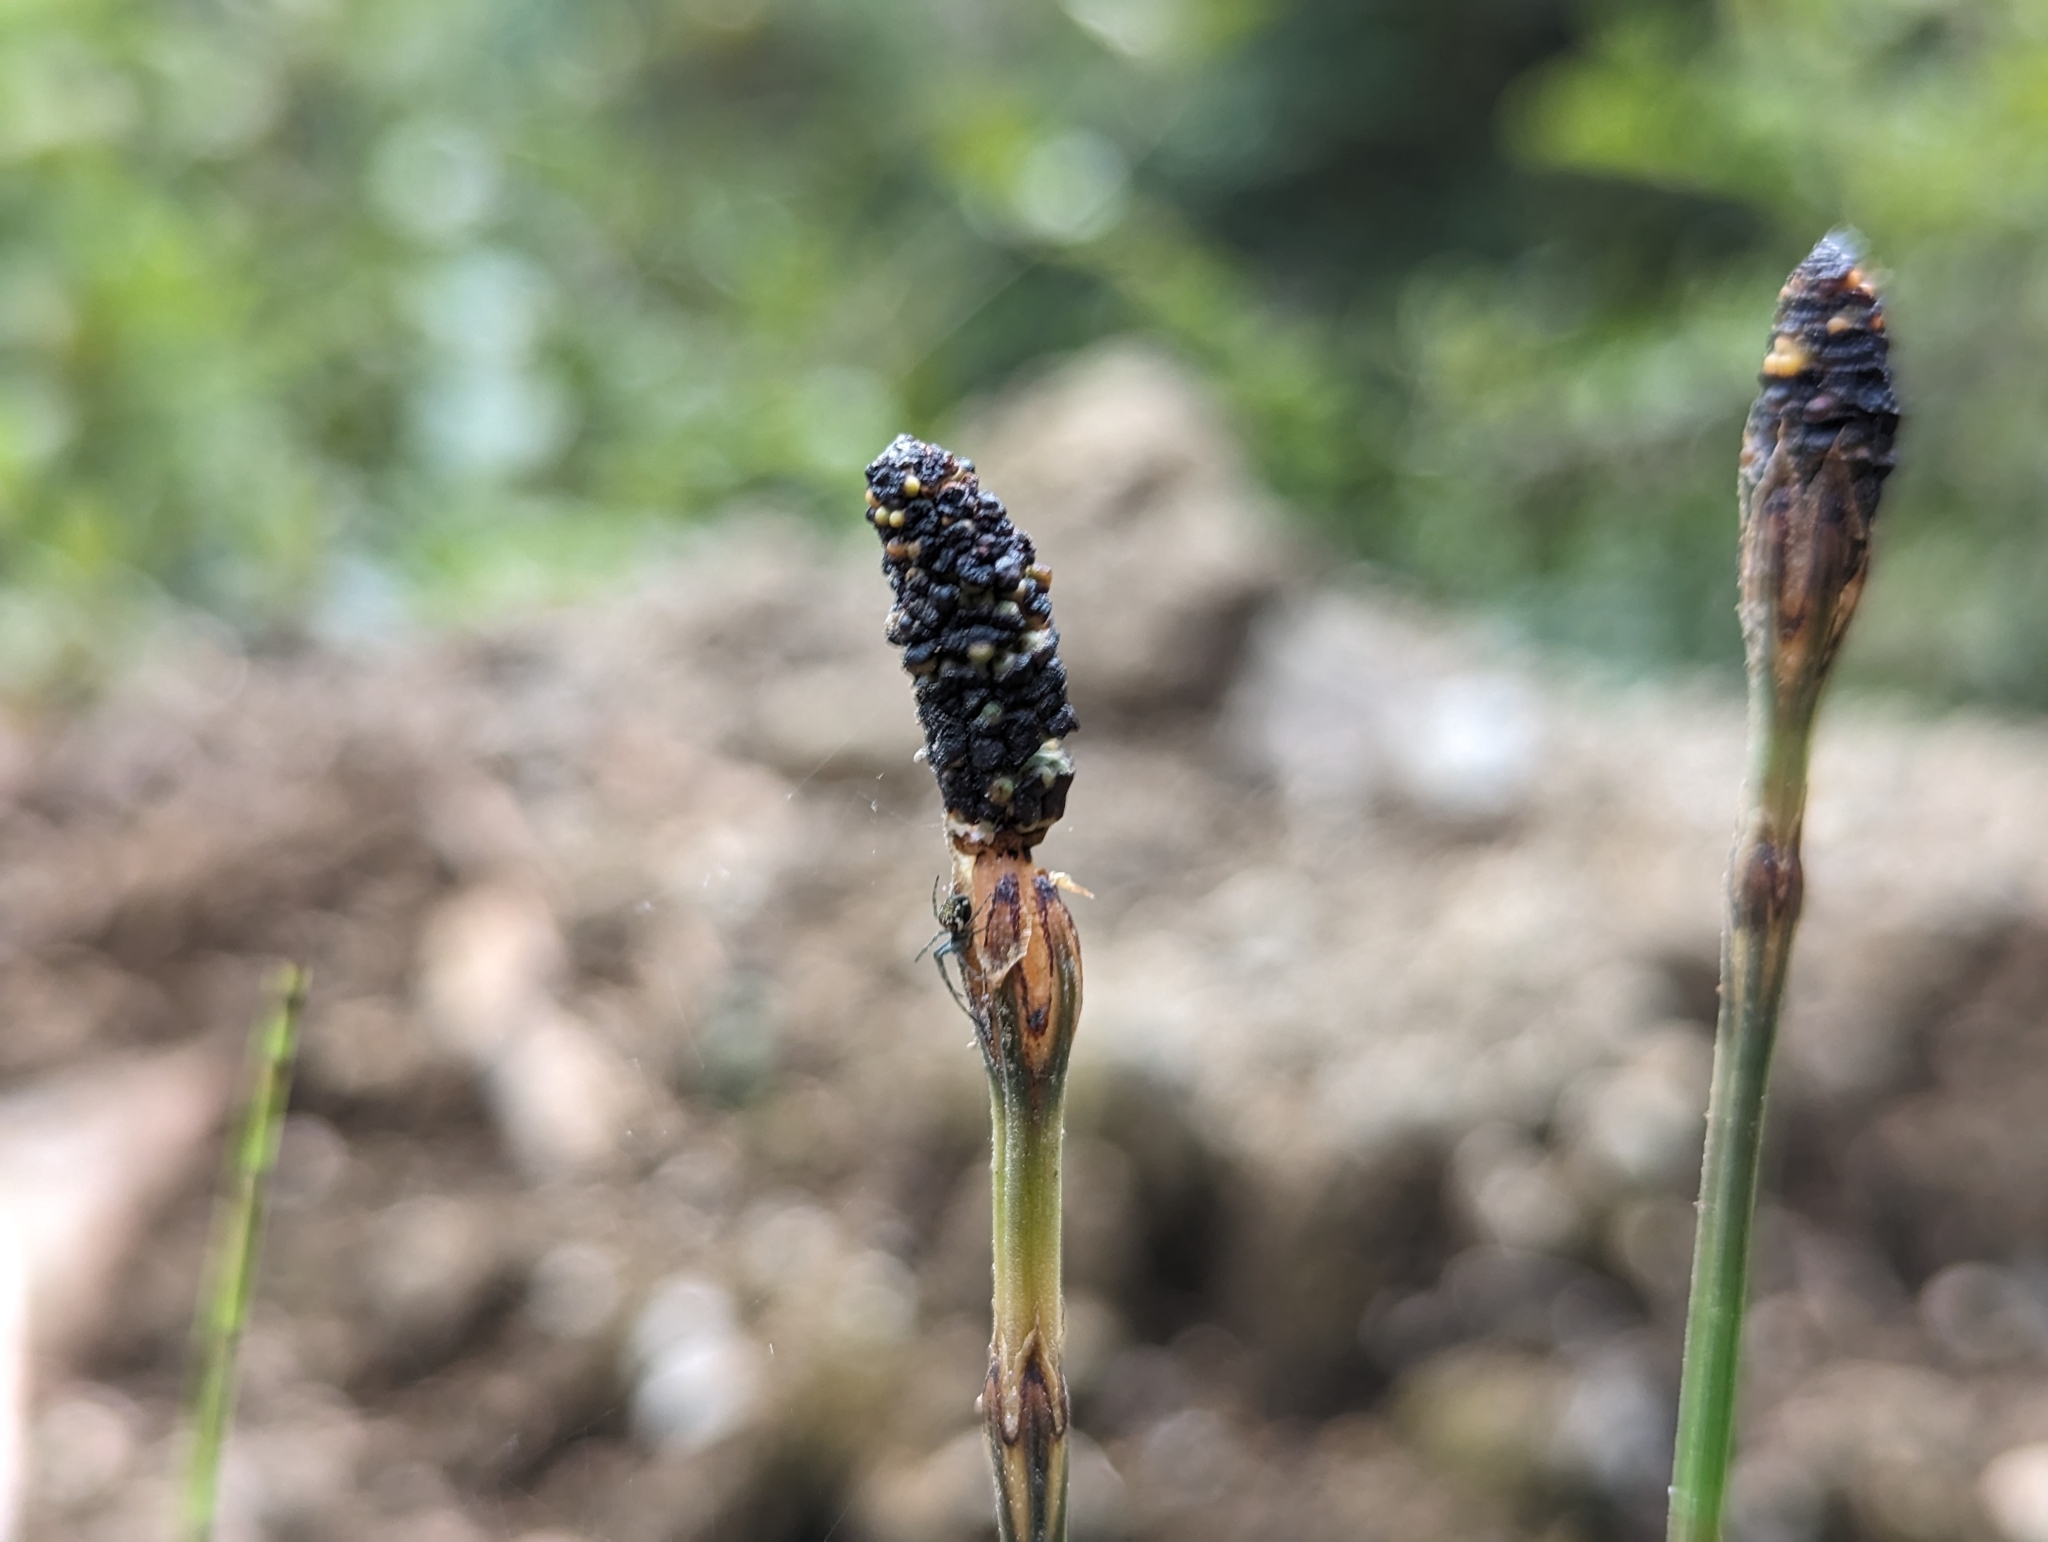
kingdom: Plantae
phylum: Tracheophyta
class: Polypodiopsida
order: Equisetales
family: Equisetaceae
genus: Equisetum
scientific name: Equisetum bogotense
